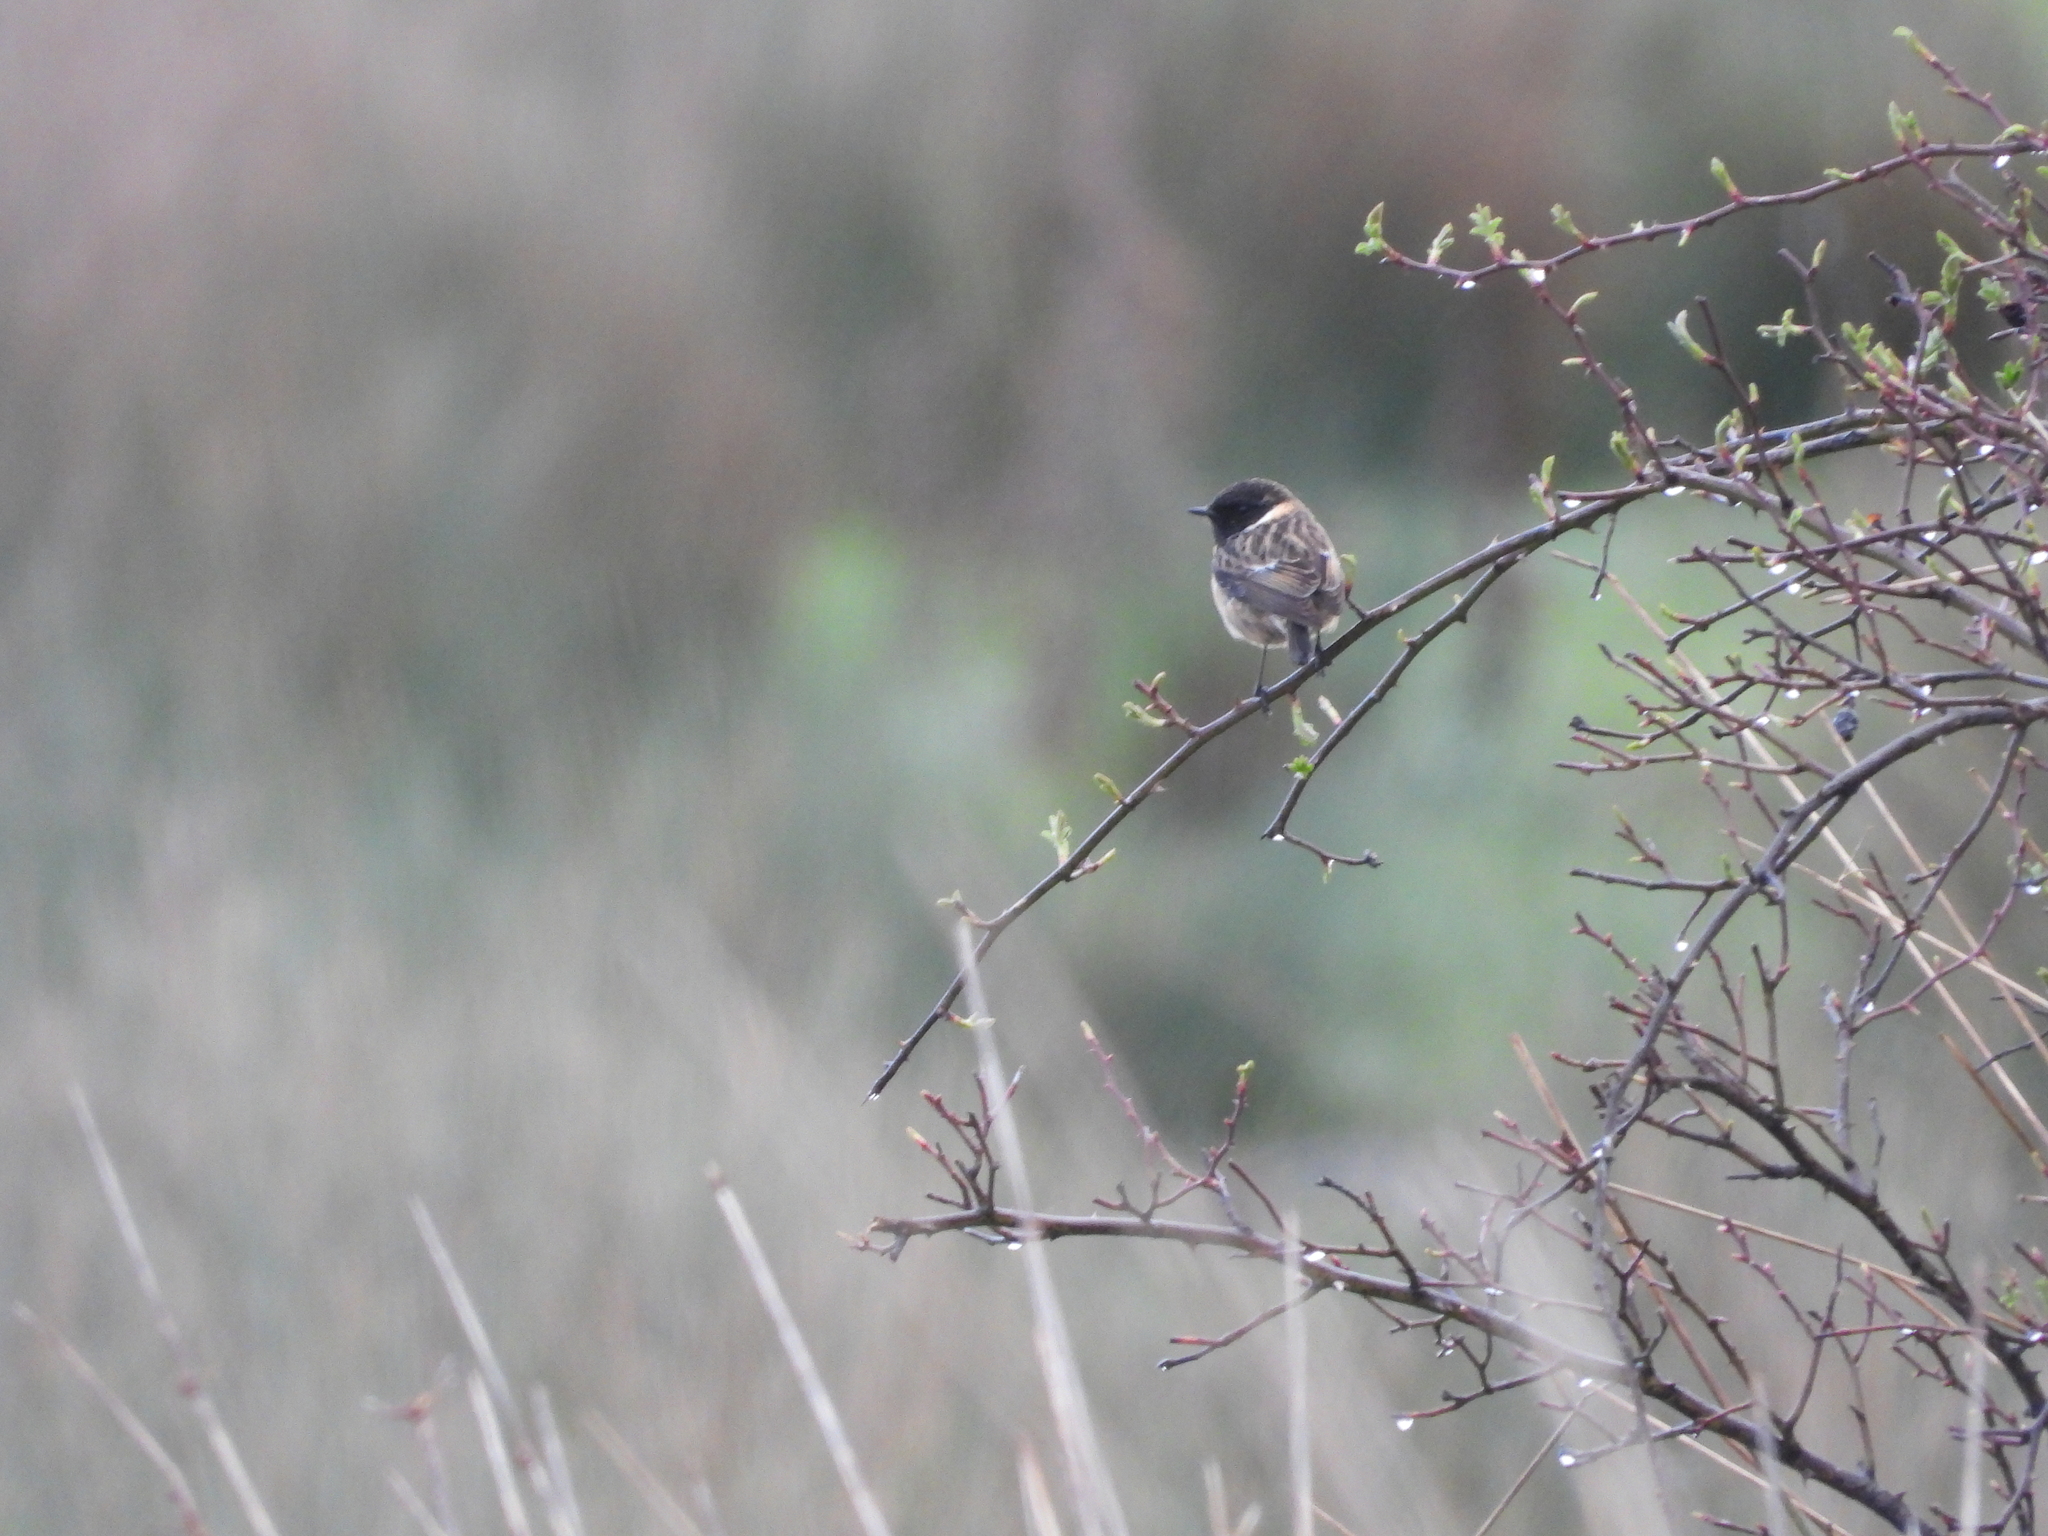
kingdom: Animalia
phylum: Chordata
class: Aves
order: Passeriformes
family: Muscicapidae
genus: Saxicola
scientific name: Saxicola rubicola
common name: European stonechat
